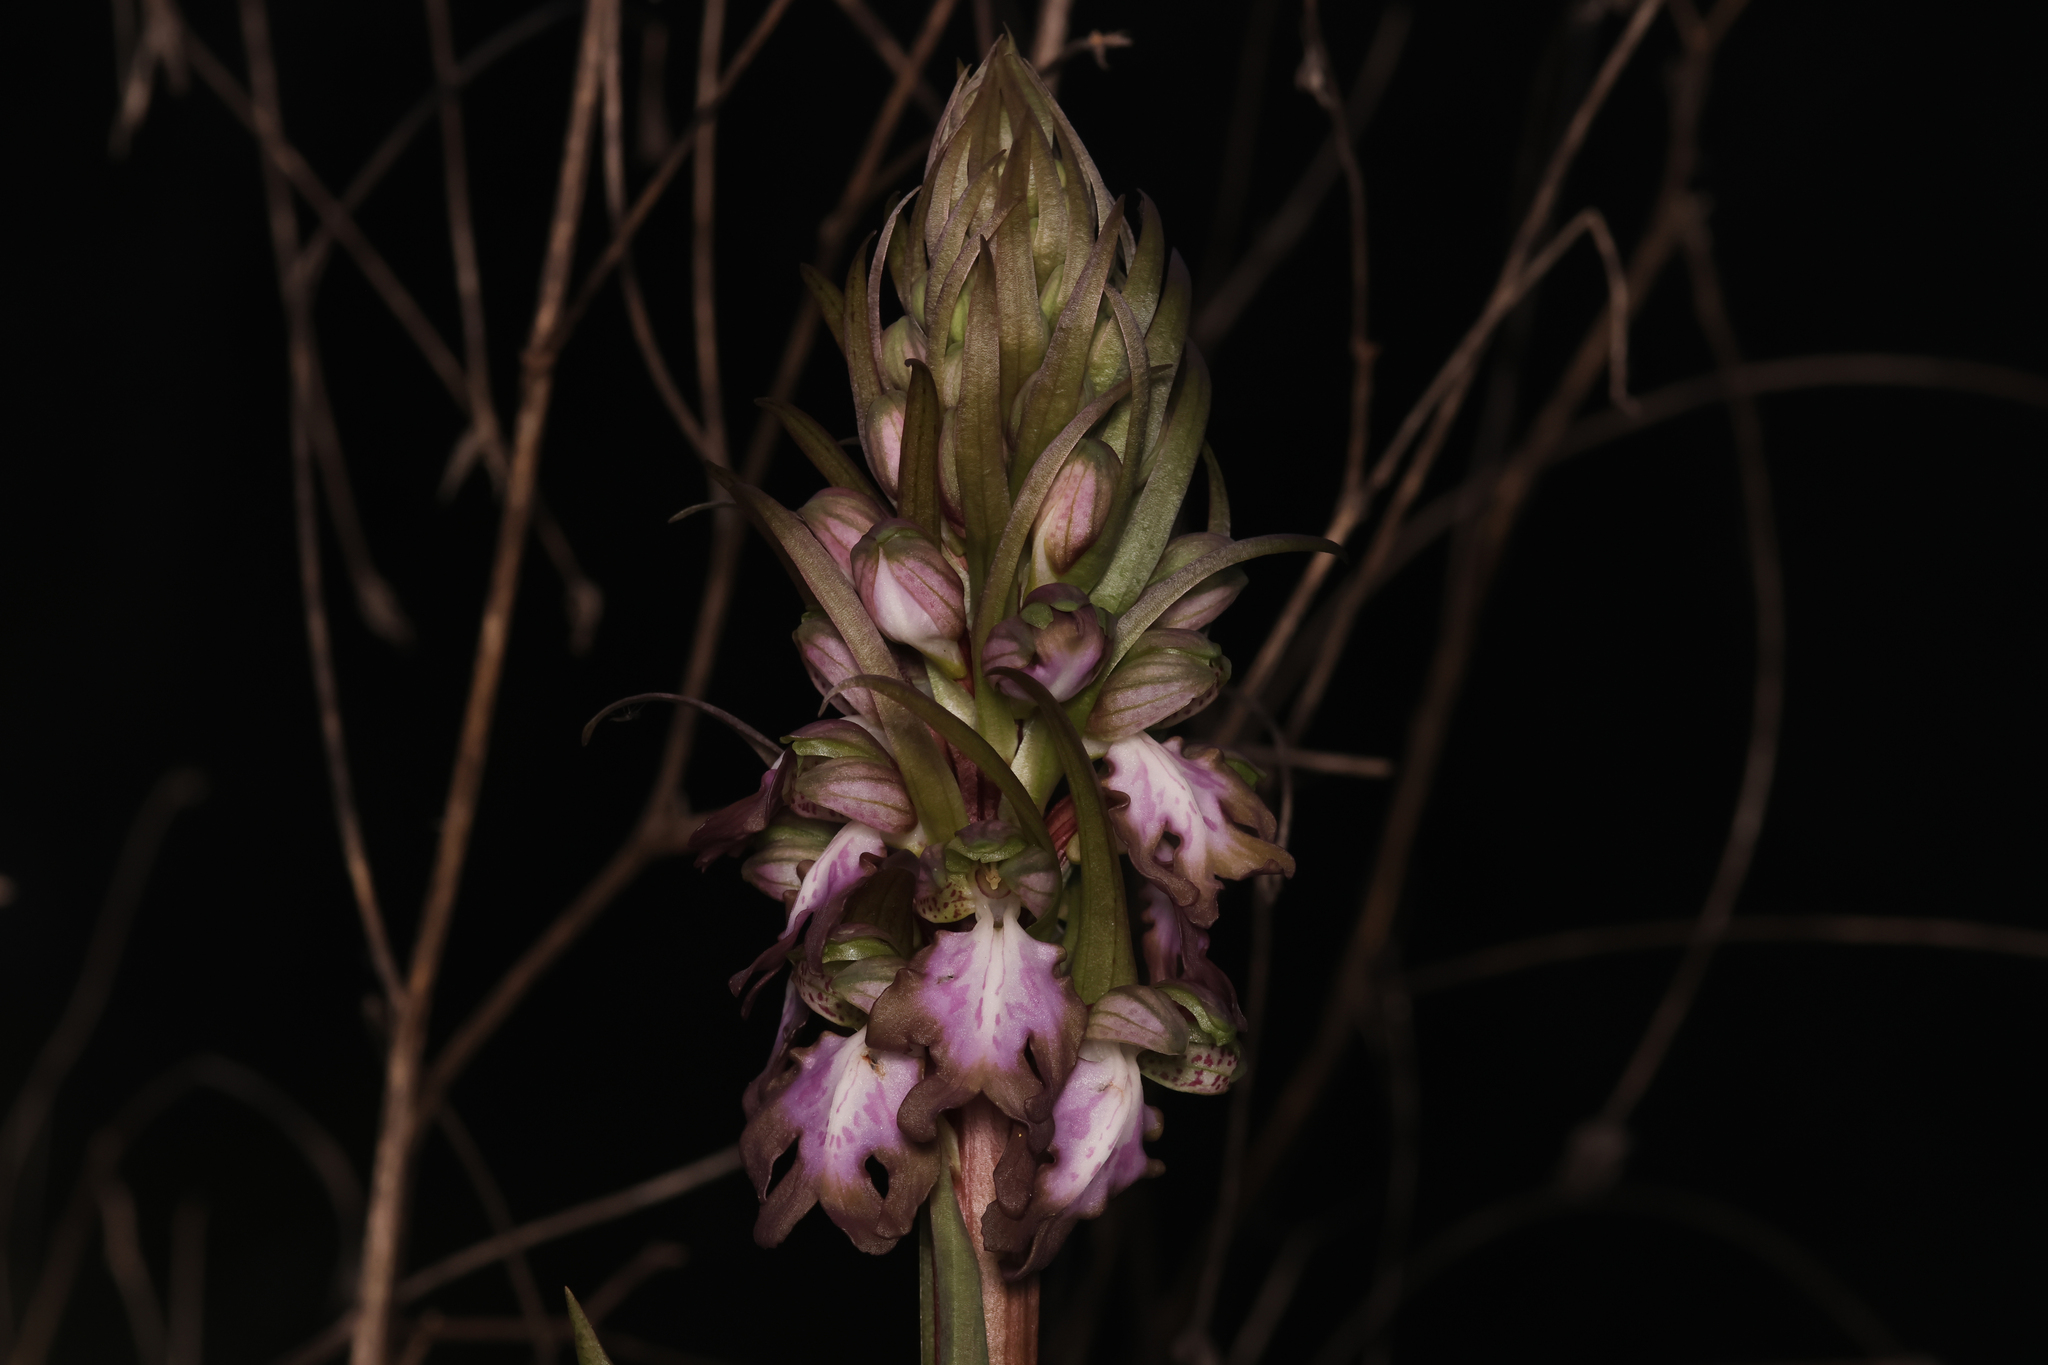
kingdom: Plantae
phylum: Tracheophyta
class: Liliopsida
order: Asparagales
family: Orchidaceae
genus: Himantoglossum
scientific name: Himantoglossum robertianum
